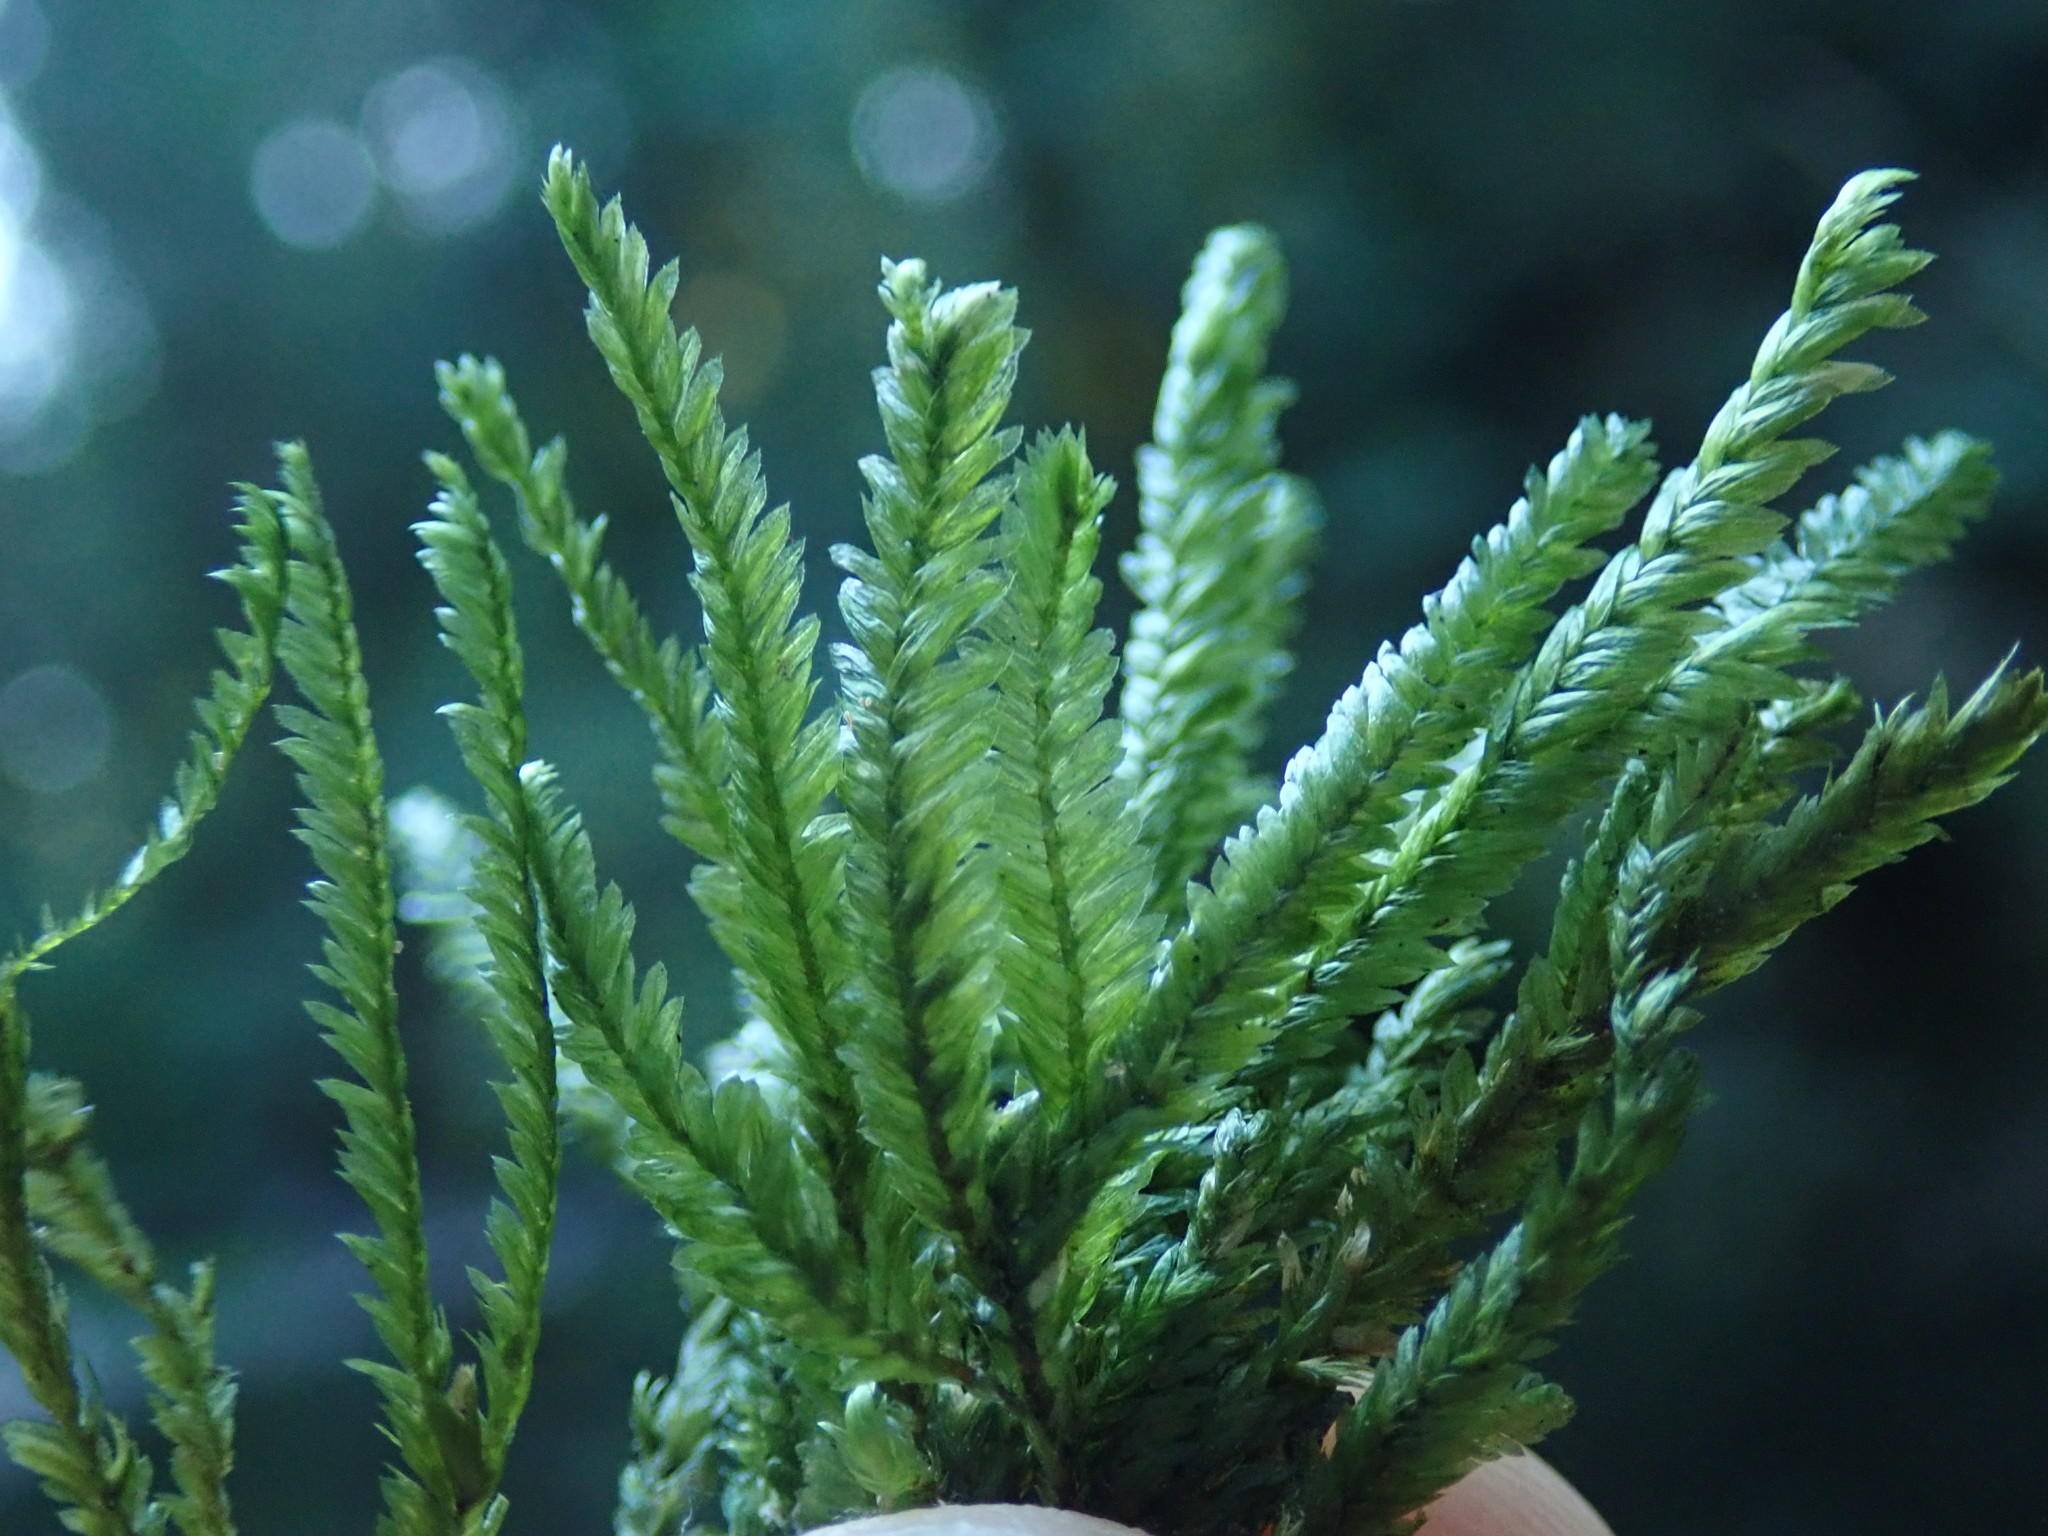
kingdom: Plantae
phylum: Bryophyta
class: Bryopsida
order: Hypnales
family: Neckeraceae
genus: Dannorrisia
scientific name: Dannorrisia bigelovii
